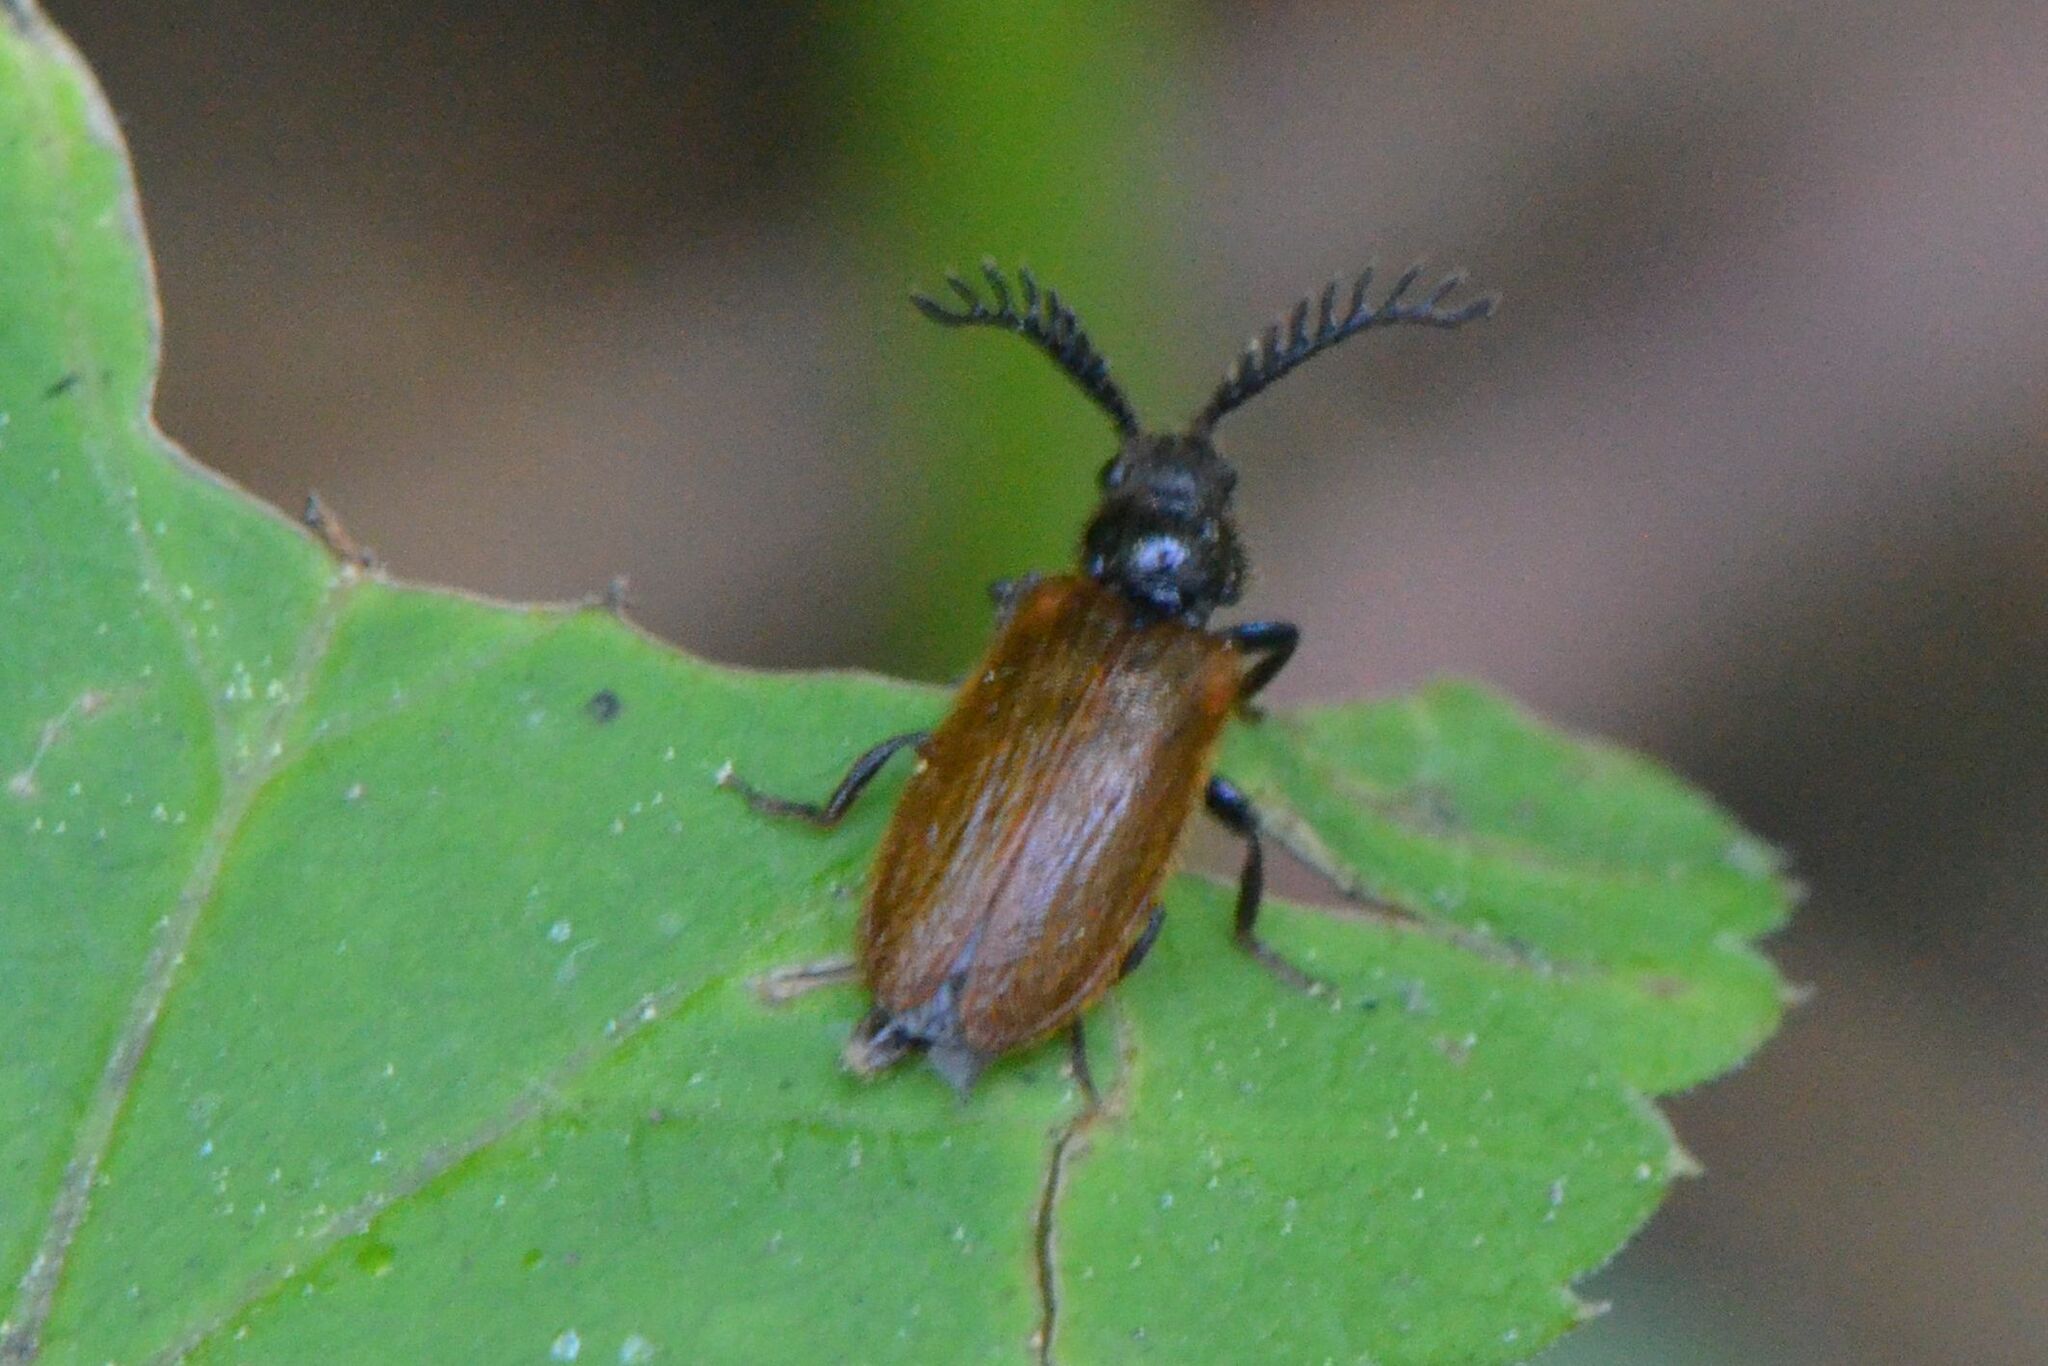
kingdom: Animalia
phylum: Arthropoda
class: Insecta
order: Coleoptera
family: Drilidae
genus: Drilus
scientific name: Drilus flavescens
